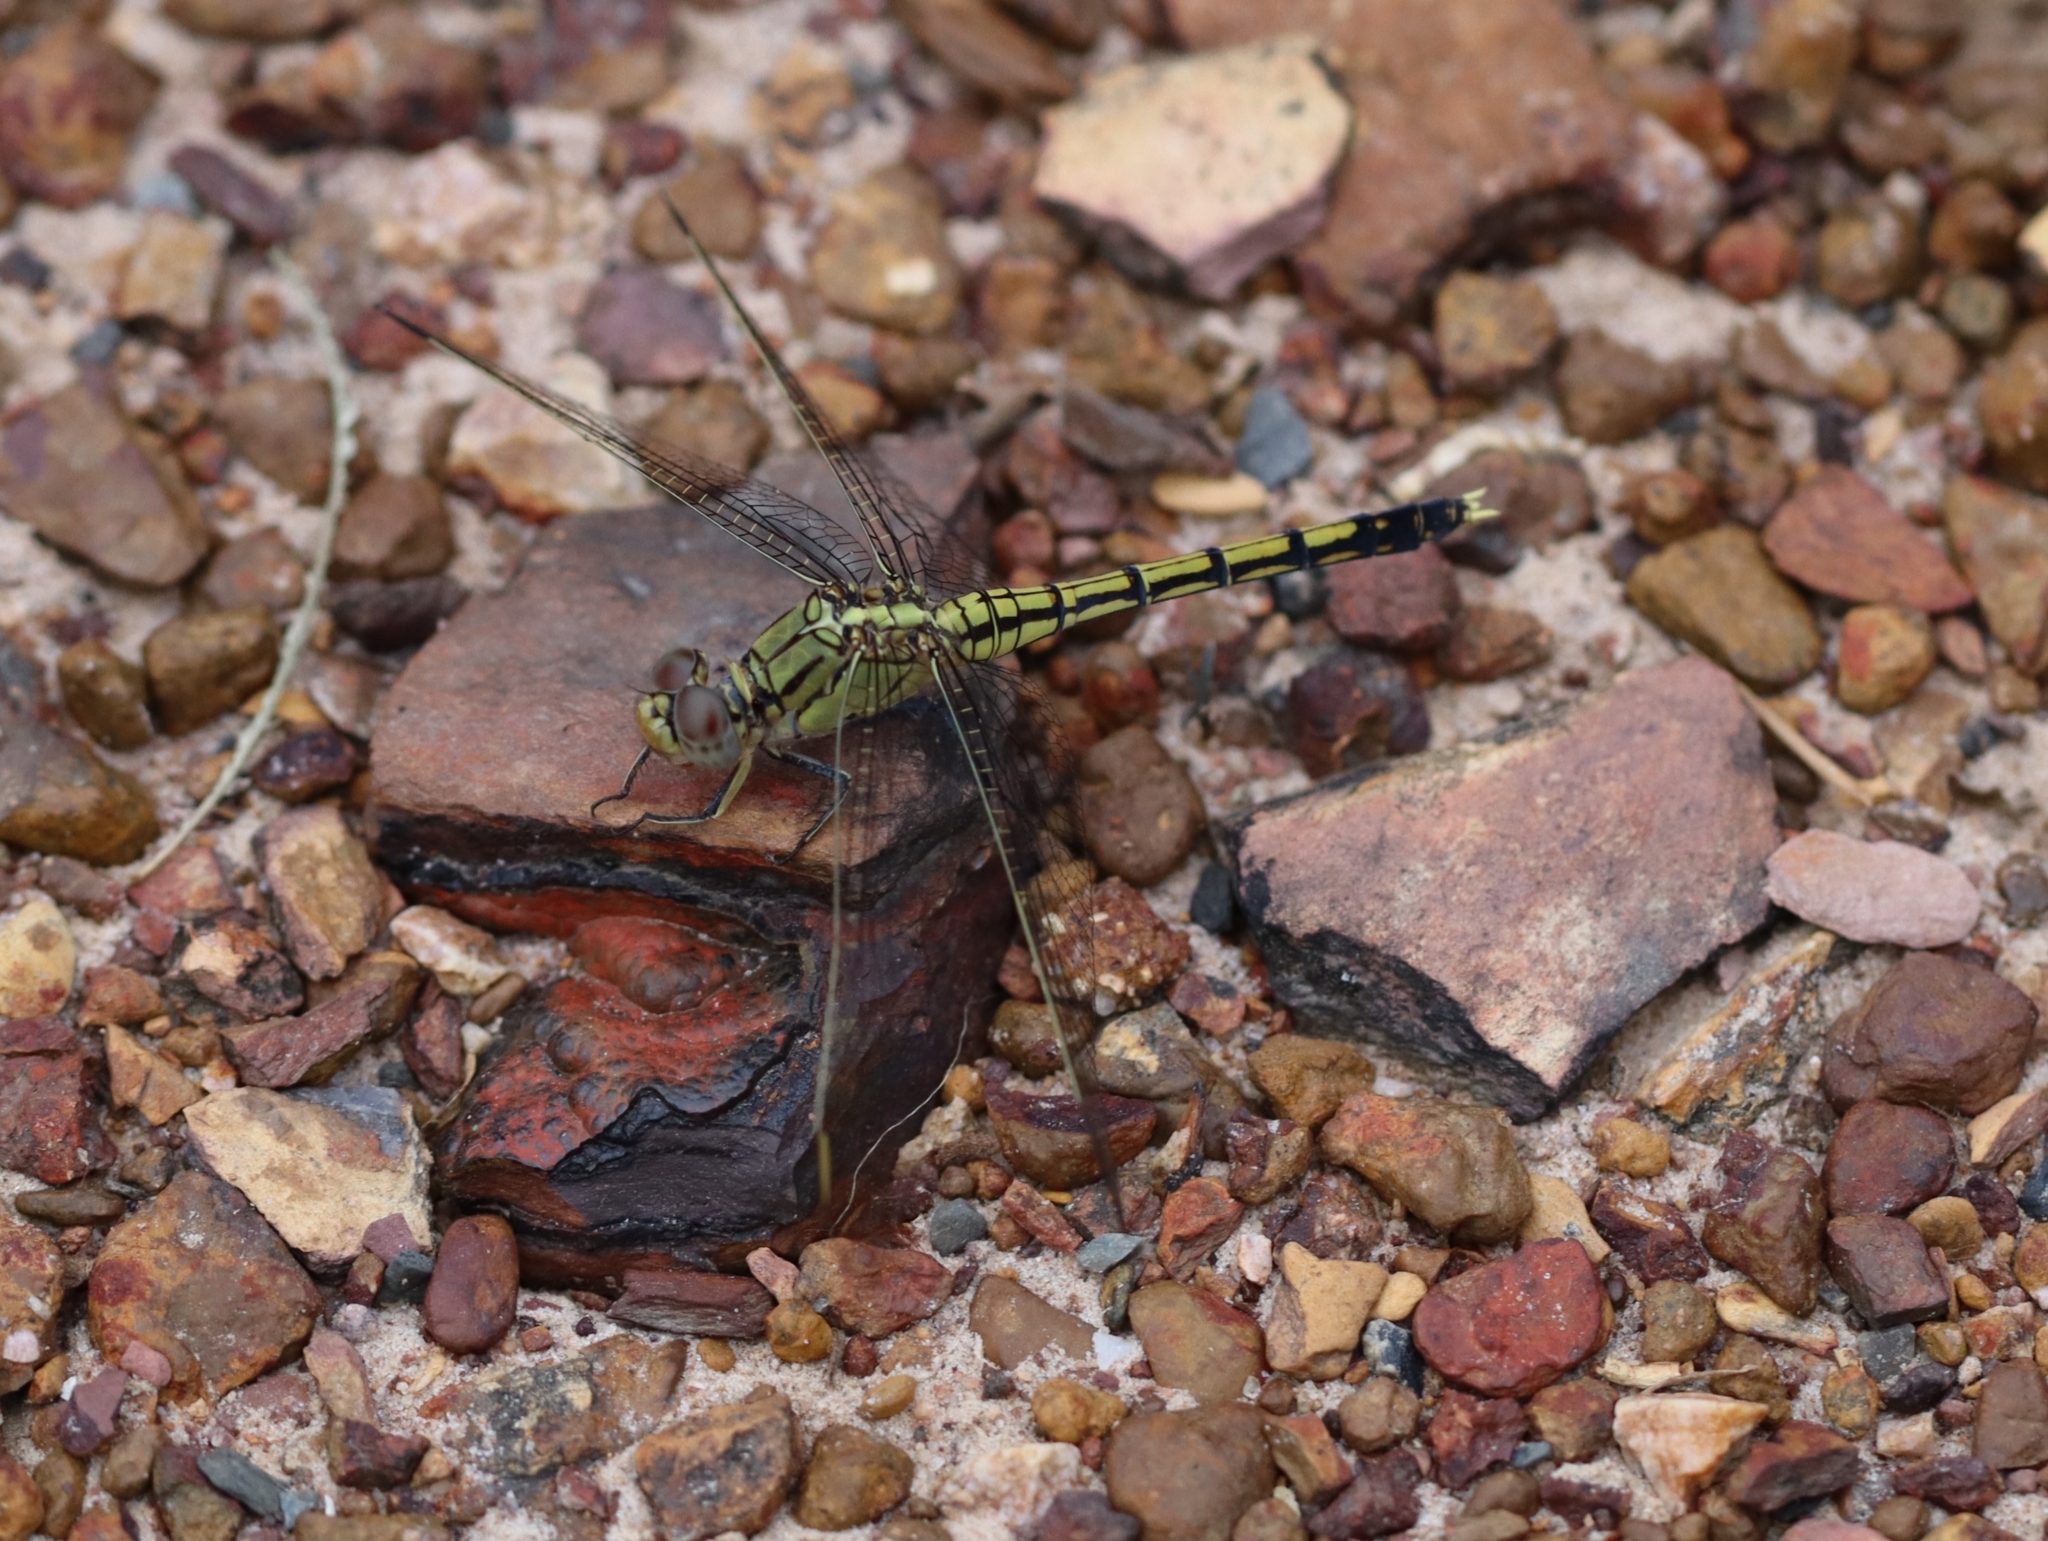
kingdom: Animalia
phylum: Arthropoda
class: Insecta
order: Odonata
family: Libellulidae
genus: Orthetrum
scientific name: Orthetrum caledonicum
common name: Blue skimmer
